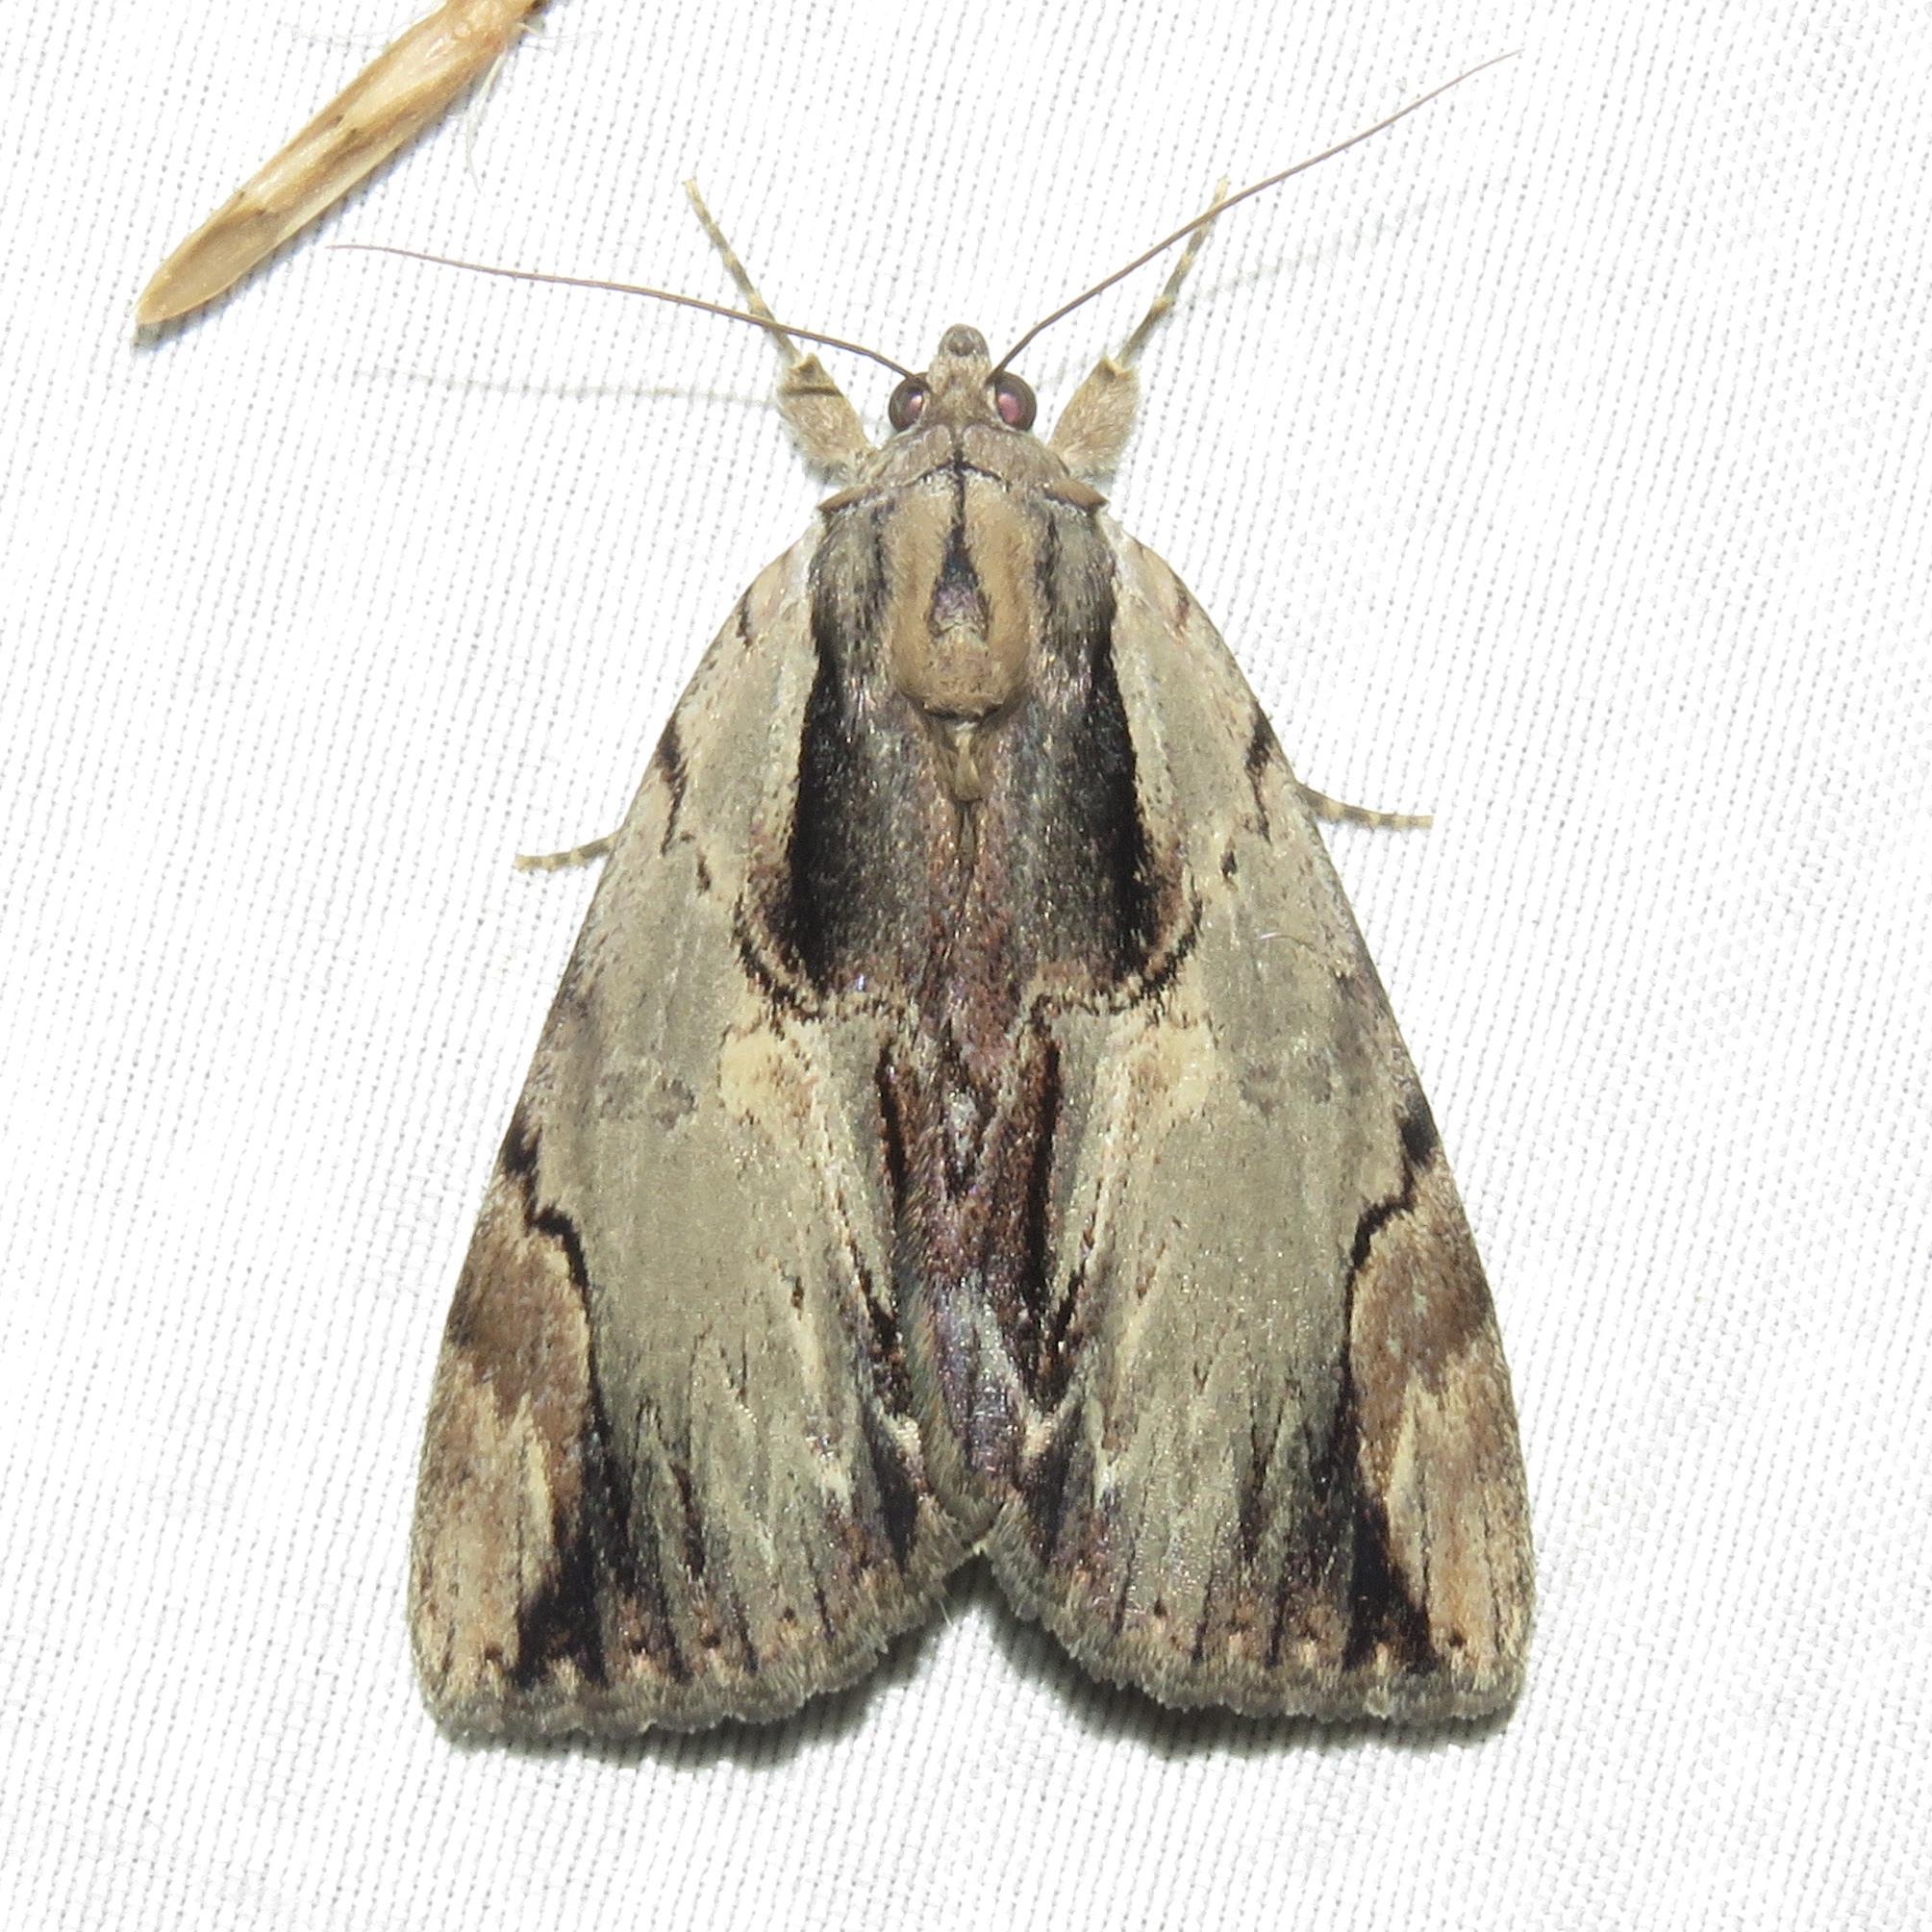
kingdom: Animalia
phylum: Arthropoda
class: Insecta
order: Lepidoptera
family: Erebidae
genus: Catocala
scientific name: Catocala ultronia
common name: Ultronia underwing
